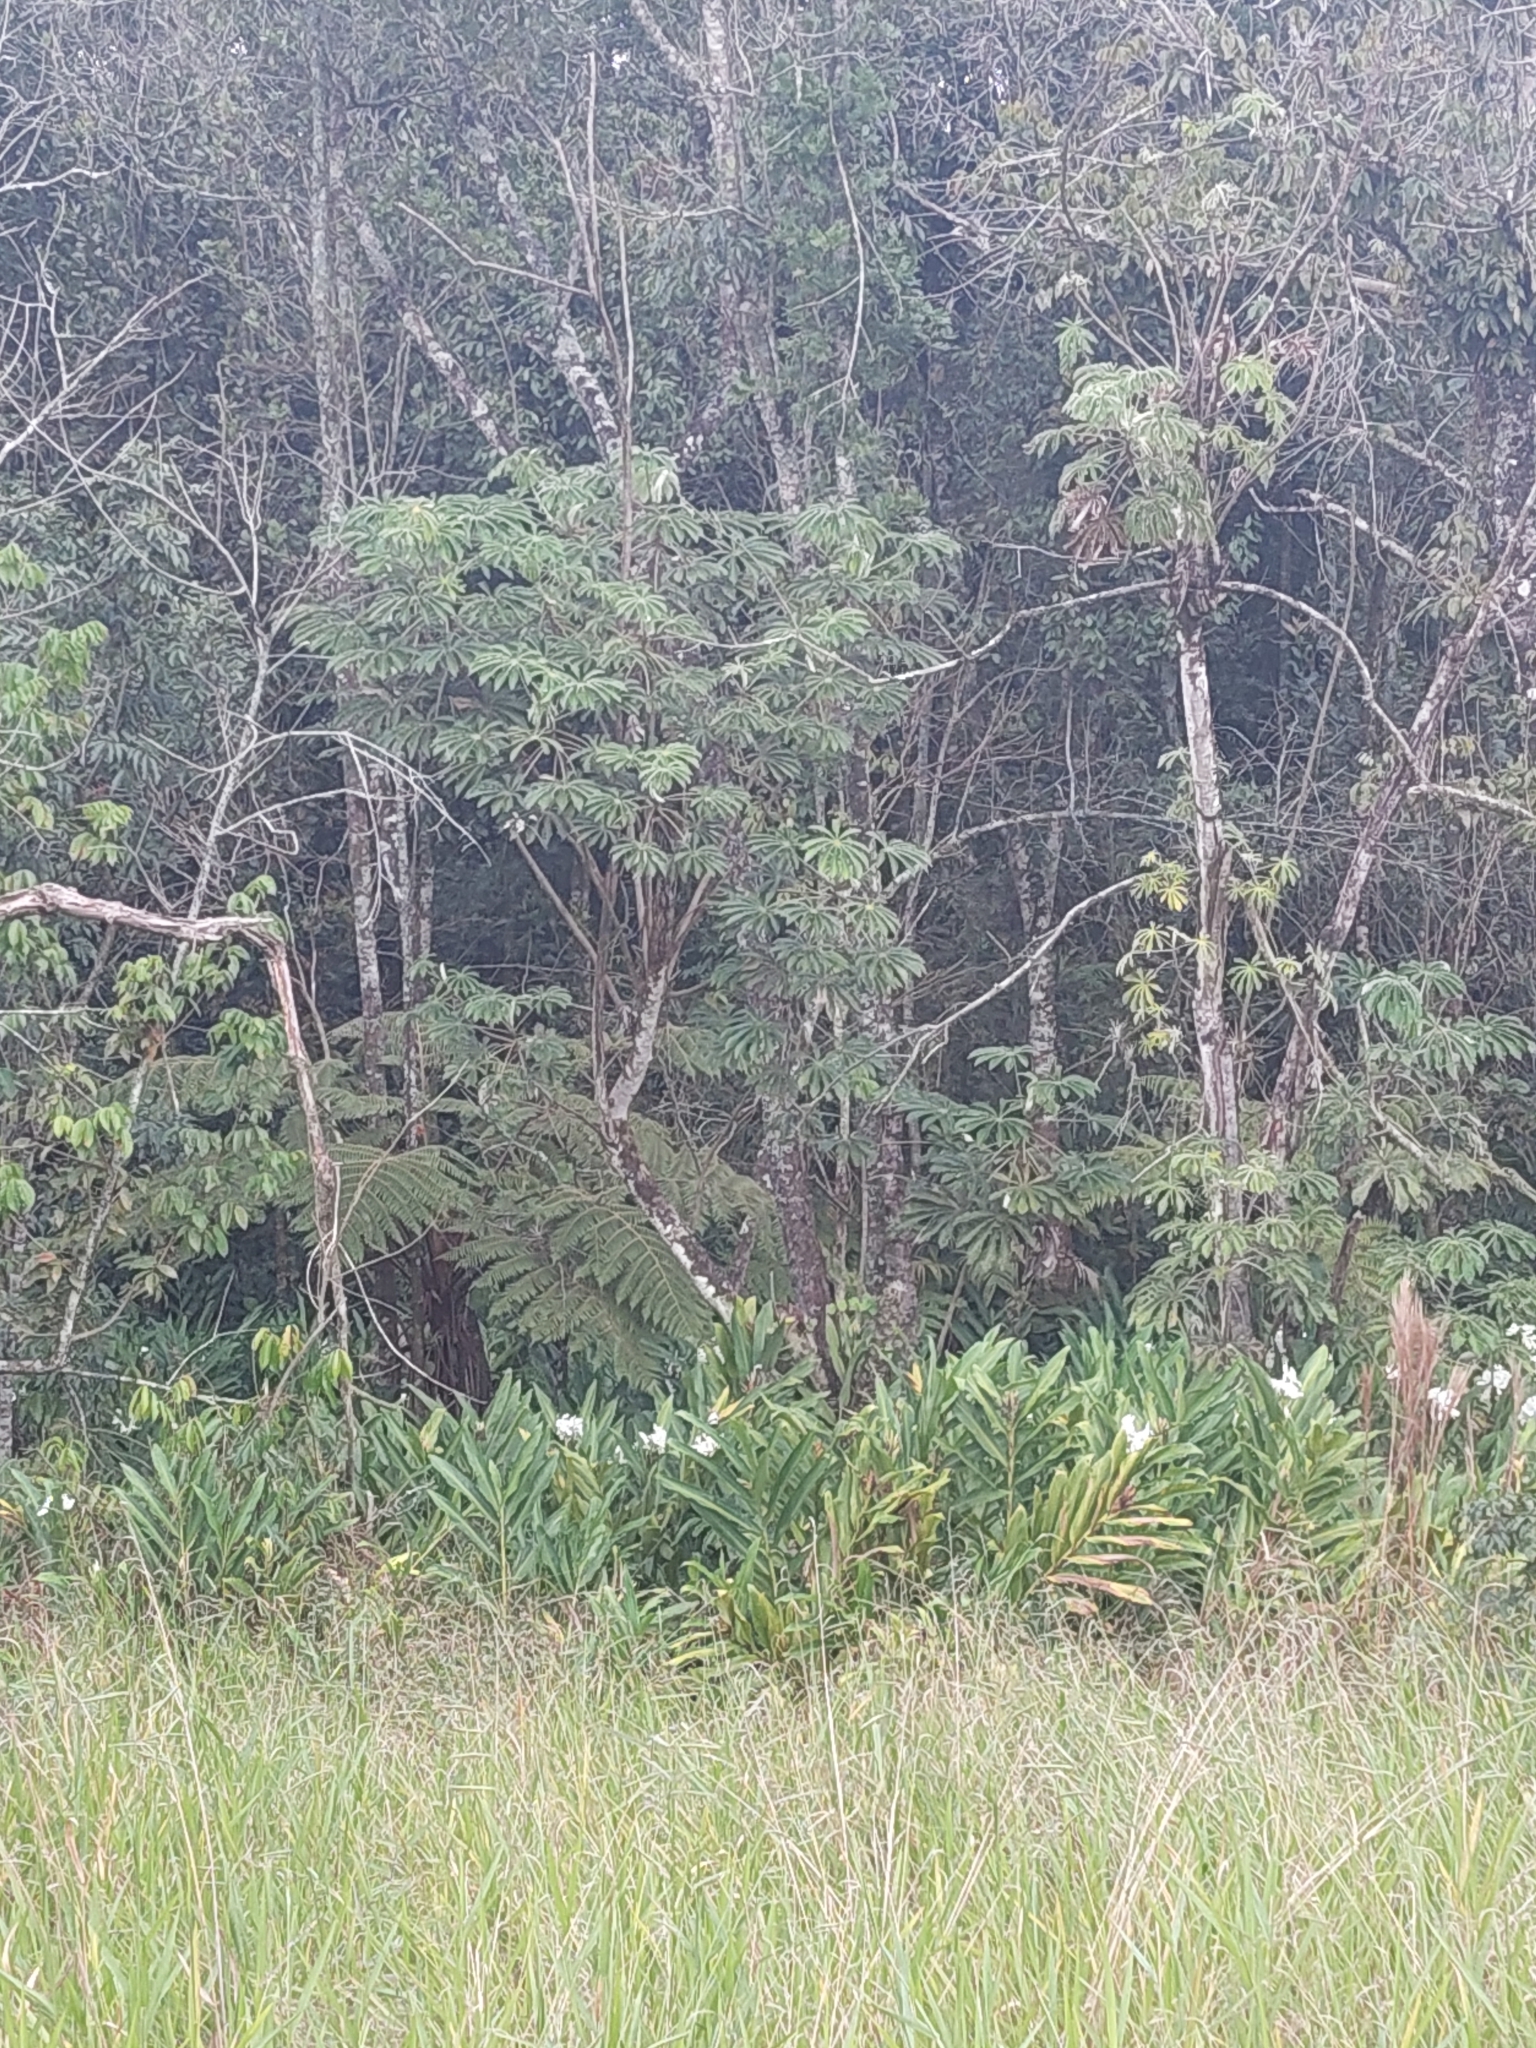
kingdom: Plantae
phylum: Tracheophyta
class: Liliopsida
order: Zingiberales
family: Zingiberaceae
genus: Hedychium
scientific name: Hedychium coronarium
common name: White garland-lily
